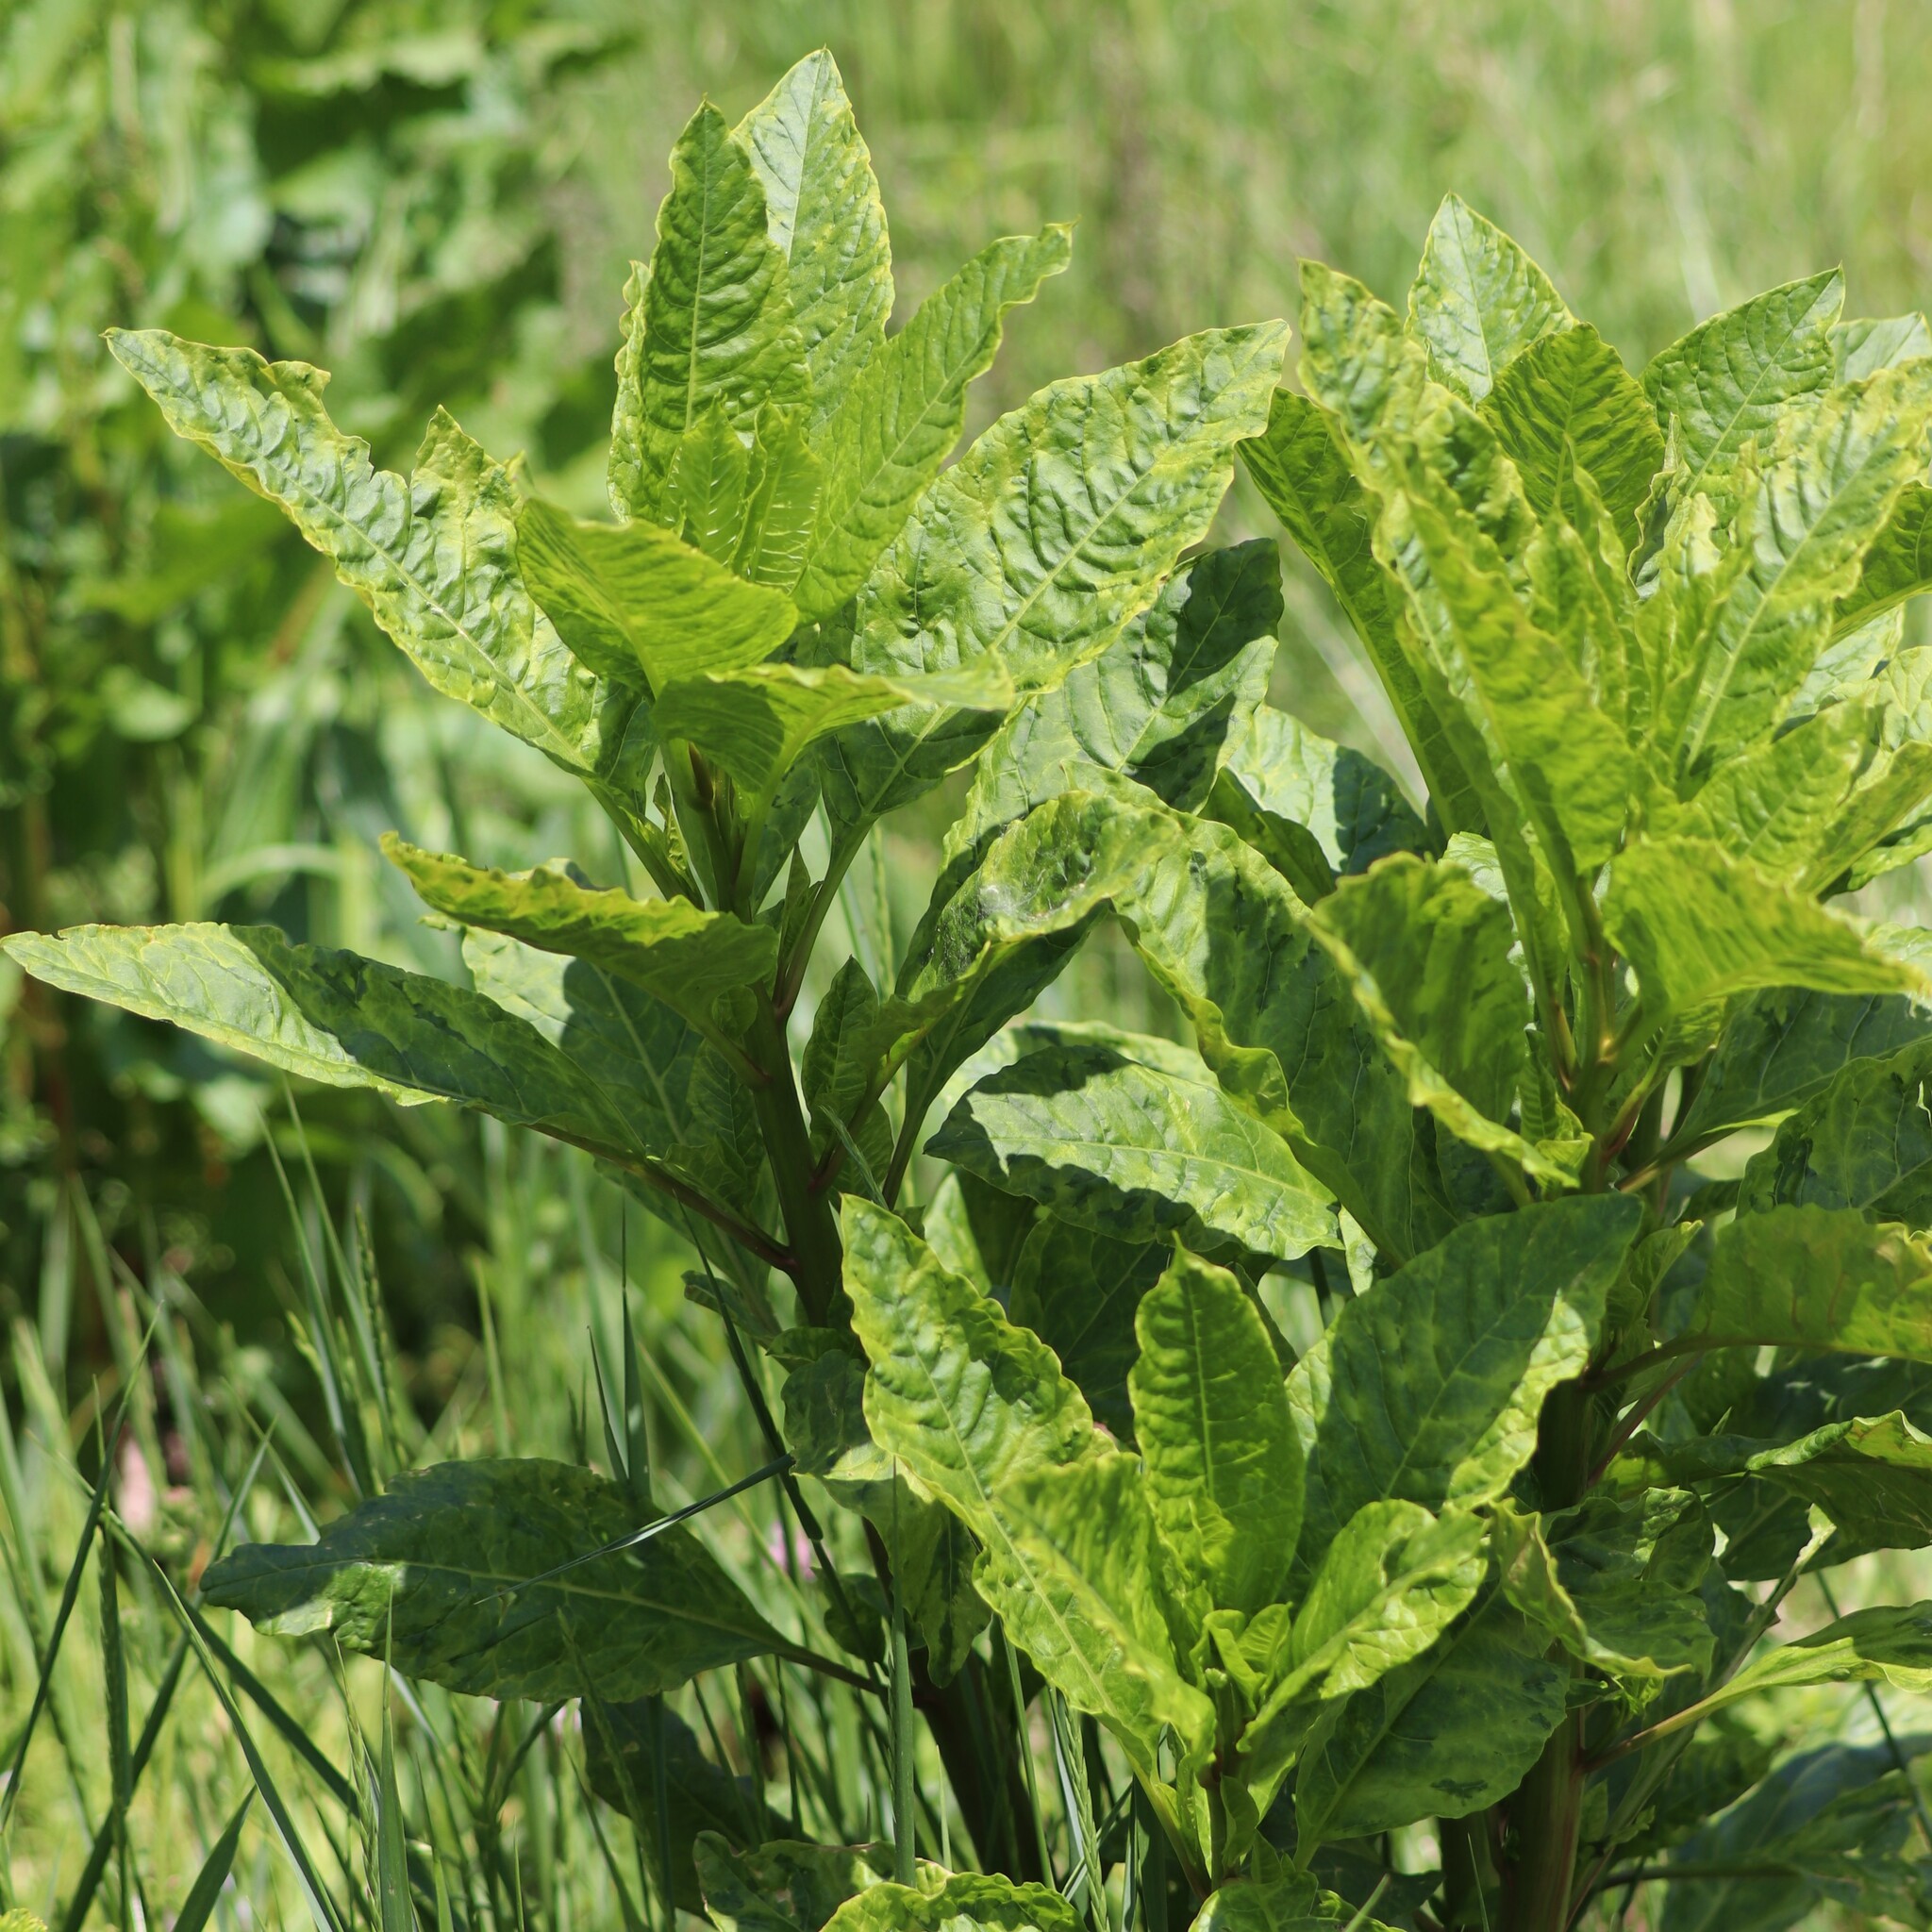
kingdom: Plantae
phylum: Tracheophyta
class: Magnoliopsida
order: Caryophyllales
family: Phytolaccaceae
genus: Phytolacca
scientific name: Phytolacca americana
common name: American pokeweed
